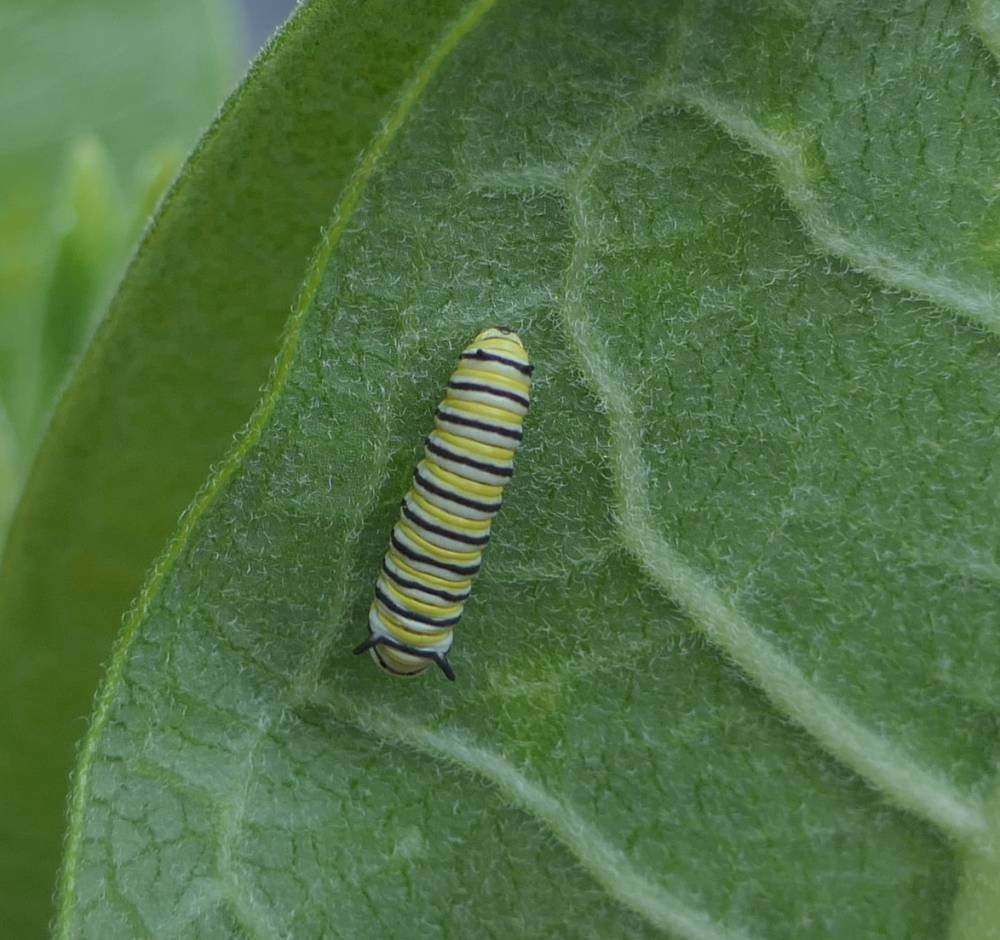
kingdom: Animalia
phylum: Arthropoda
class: Insecta
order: Lepidoptera
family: Nymphalidae
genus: Danaus
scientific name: Danaus plexippus
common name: Monarch
